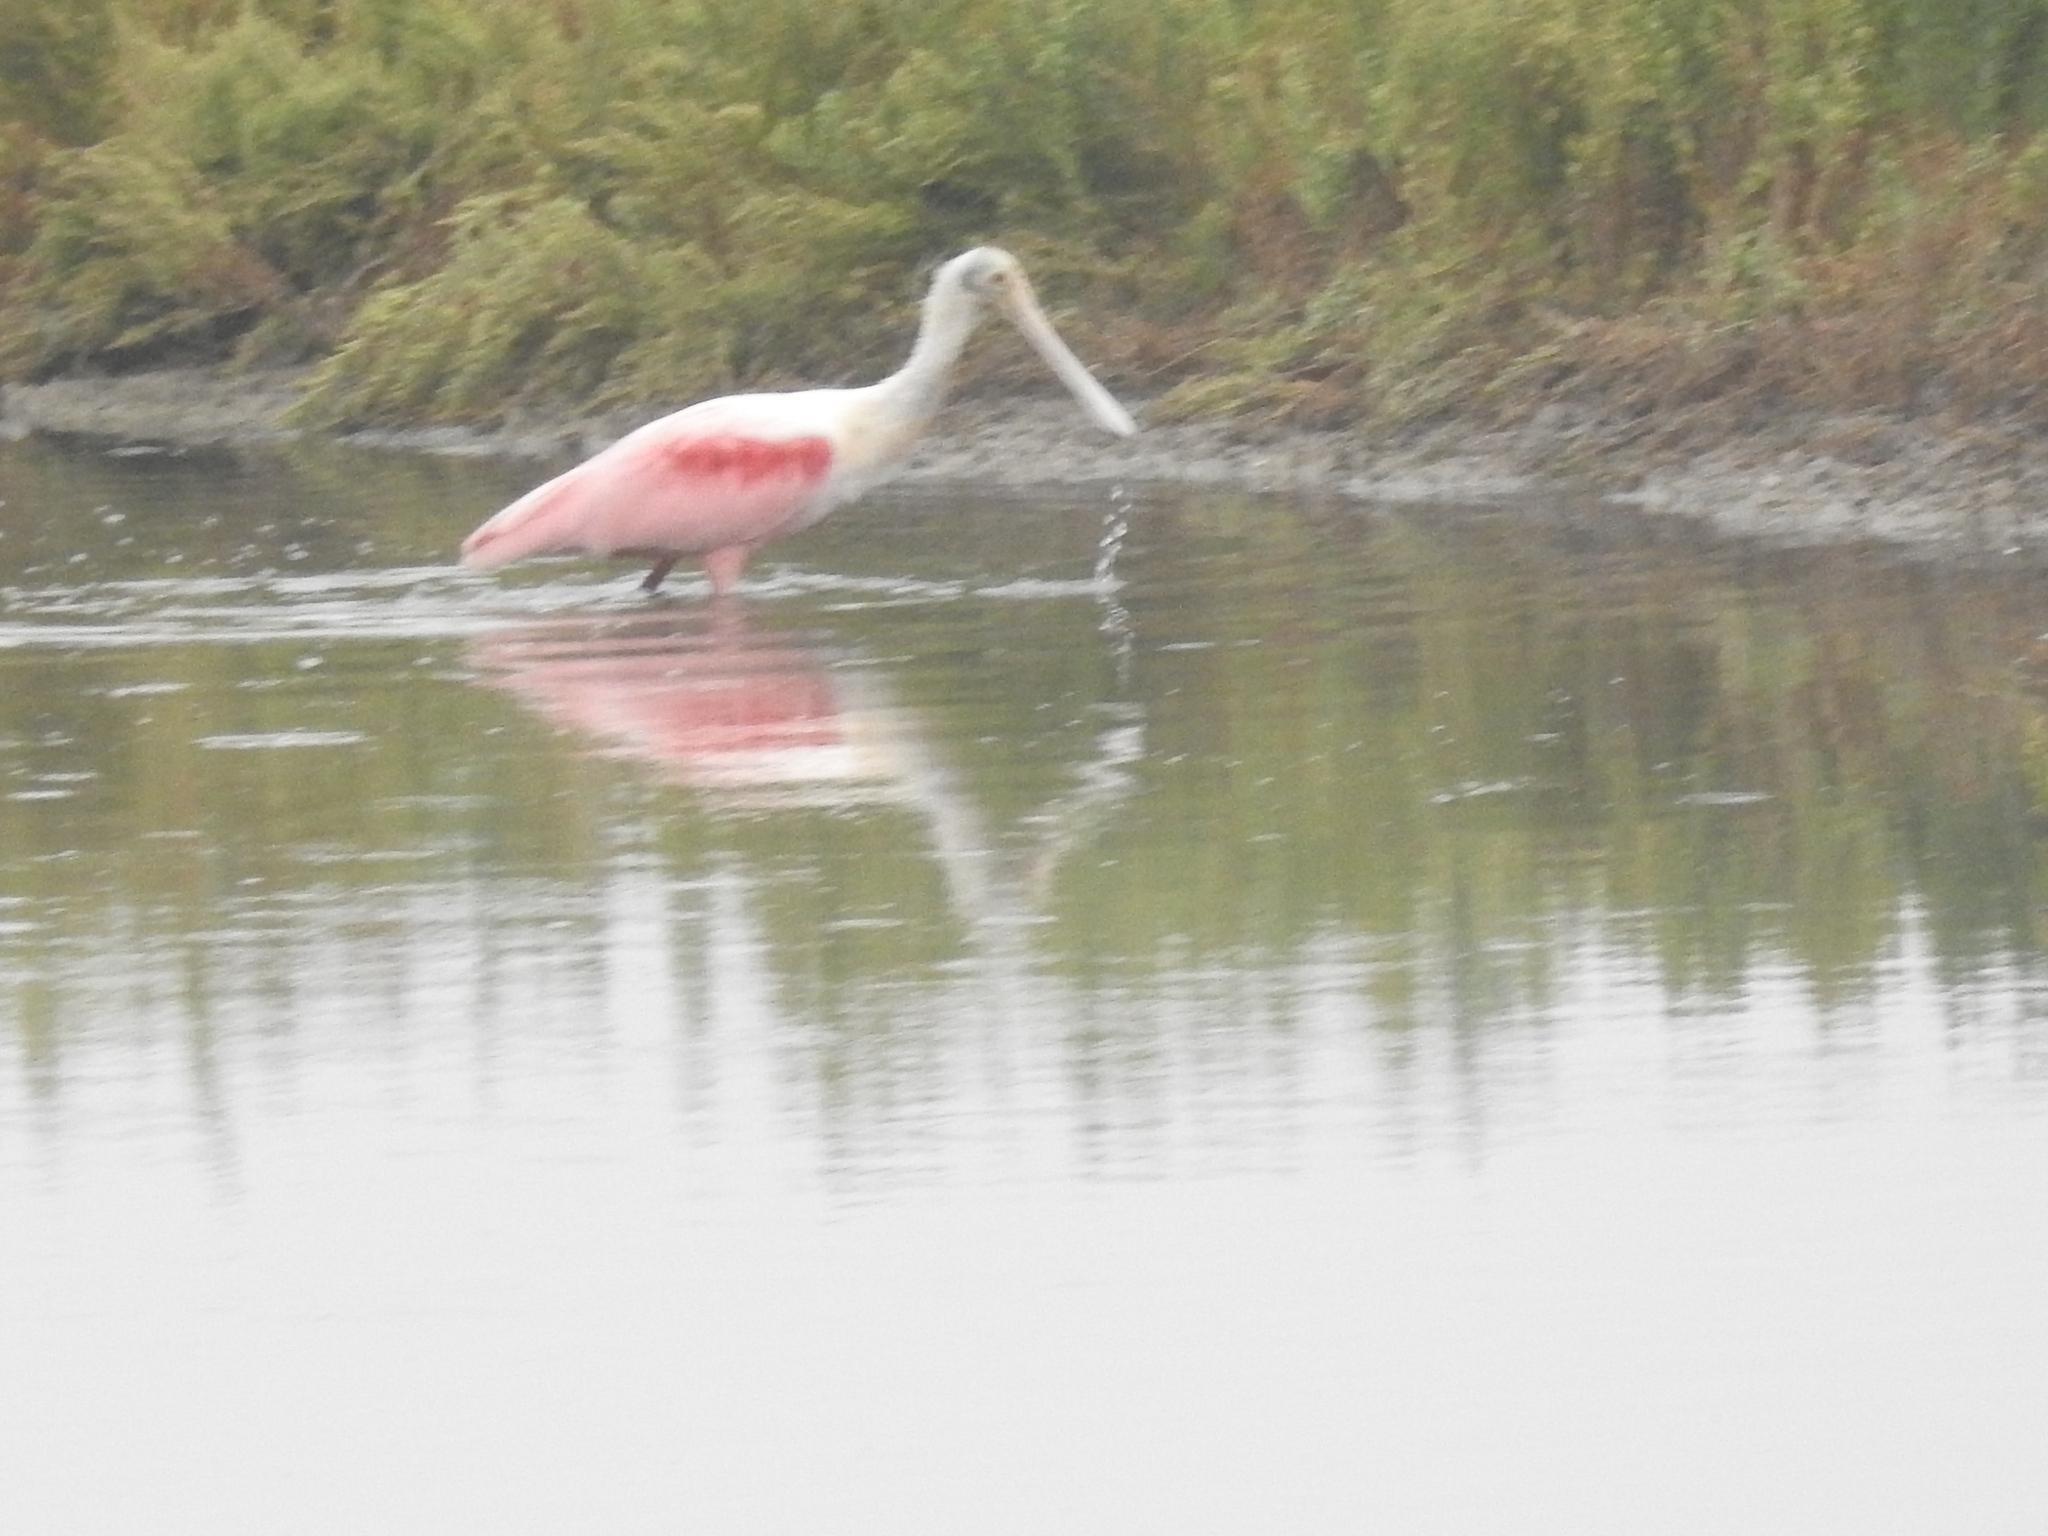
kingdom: Animalia
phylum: Chordata
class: Aves
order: Pelecaniformes
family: Threskiornithidae
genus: Platalea
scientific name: Platalea ajaja
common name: Roseate spoonbill
